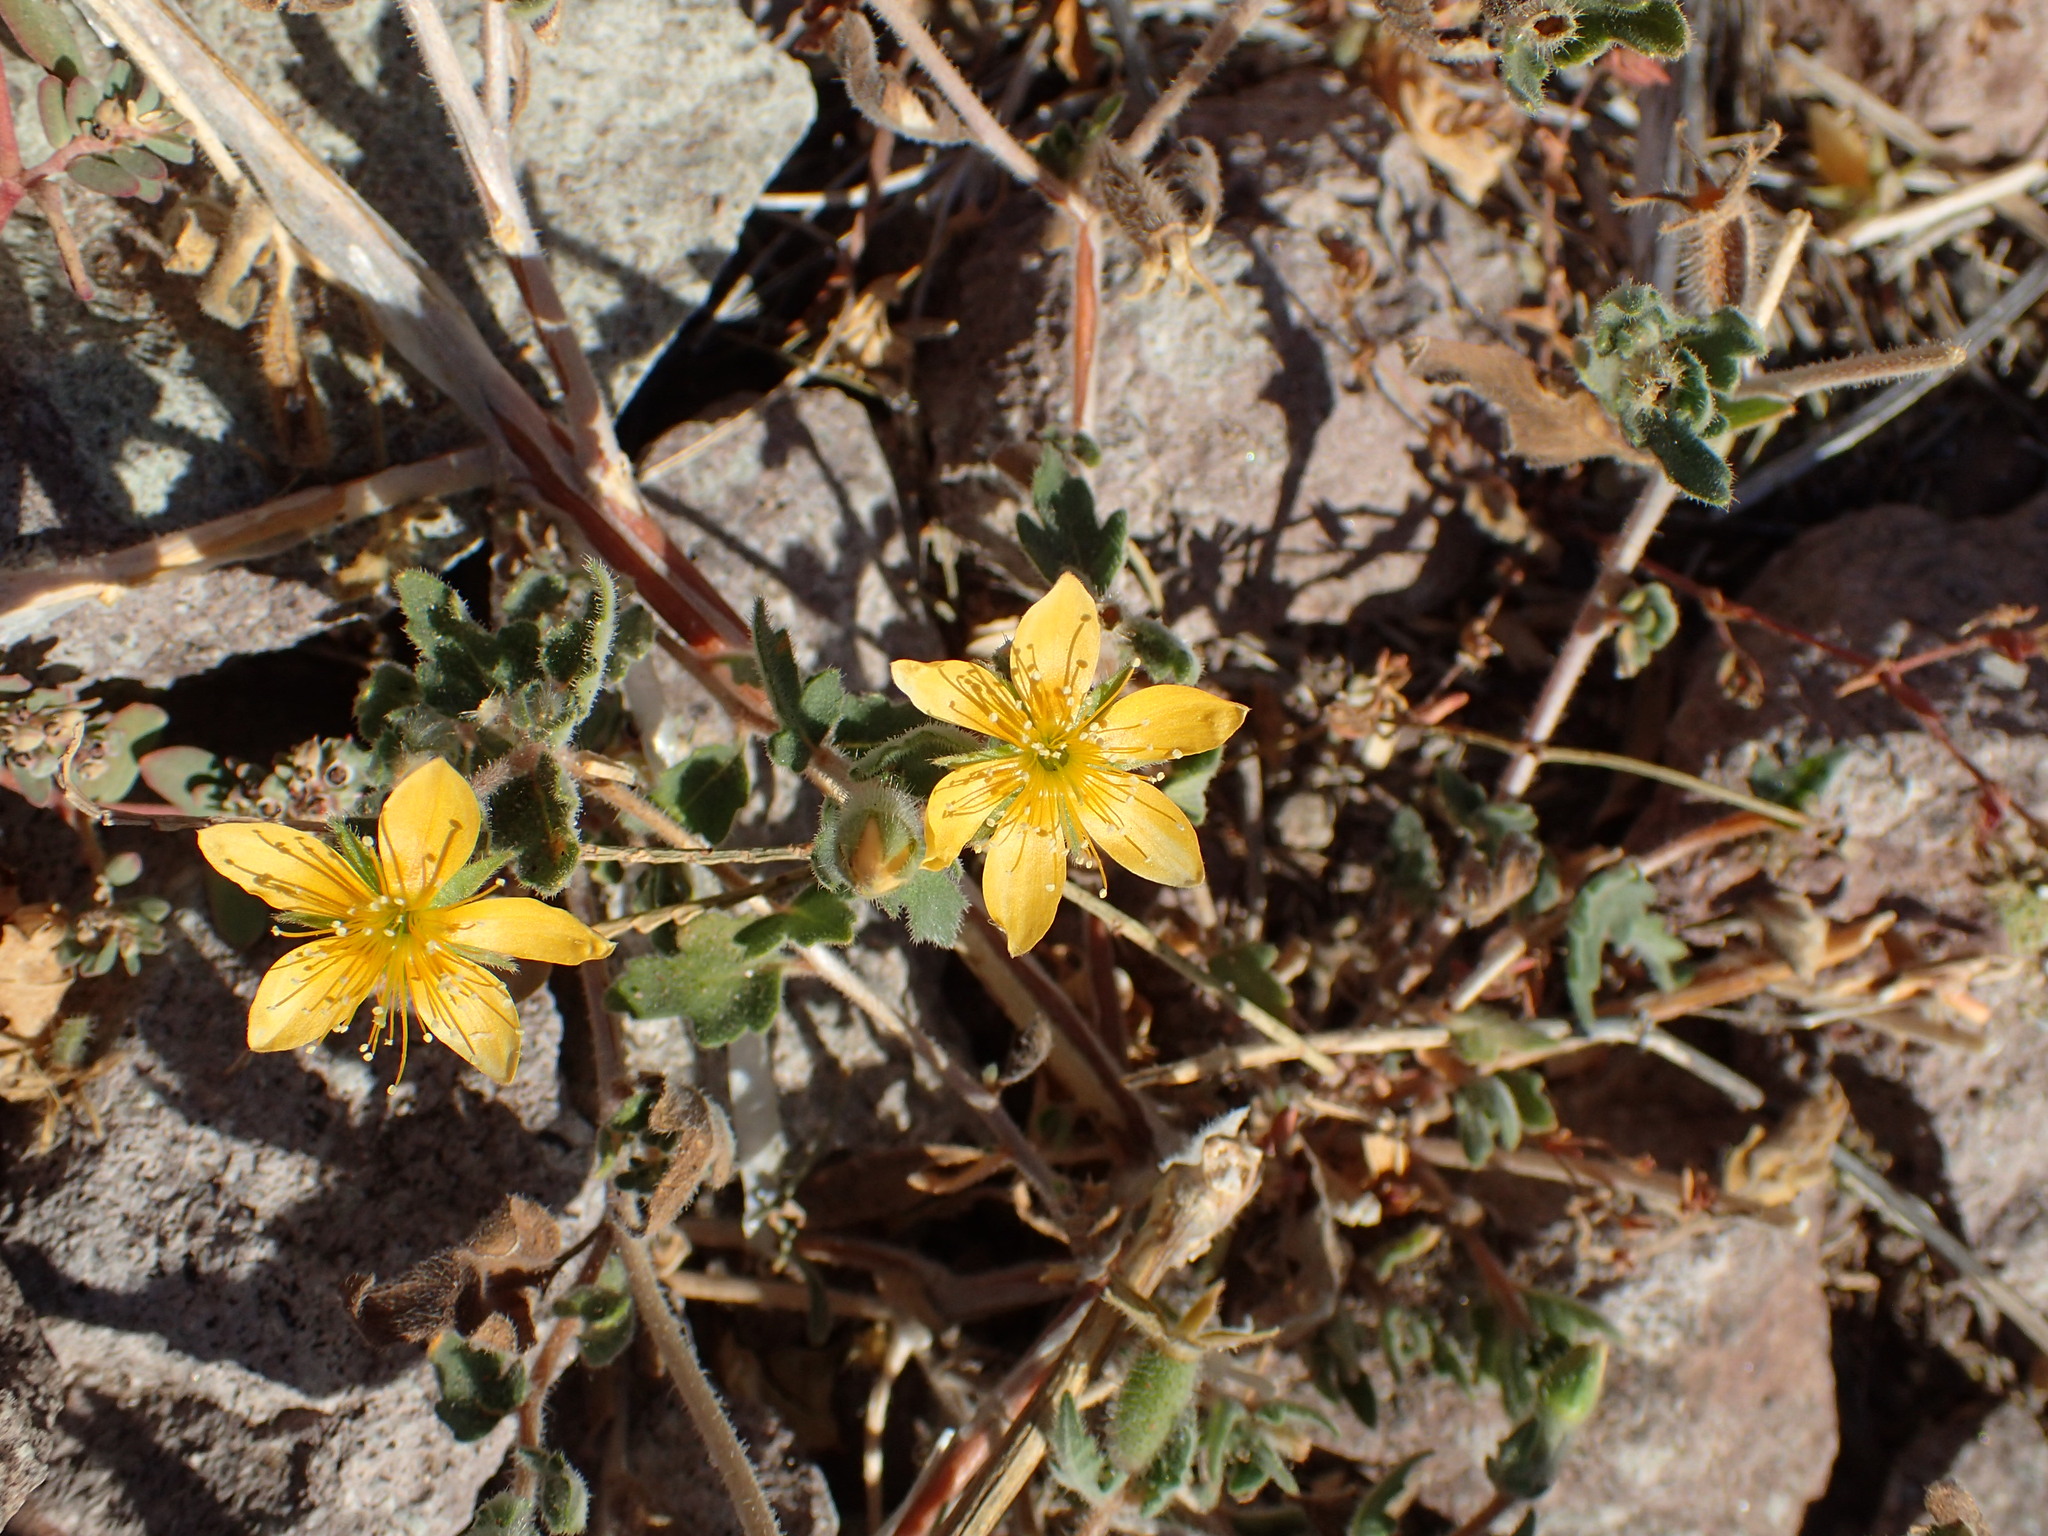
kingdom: Plantae
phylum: Tracheophyta
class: Magnoliopsida
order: Cornales
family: Loasaceae
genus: Mentzelia
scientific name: Mentzelia adhaerens
